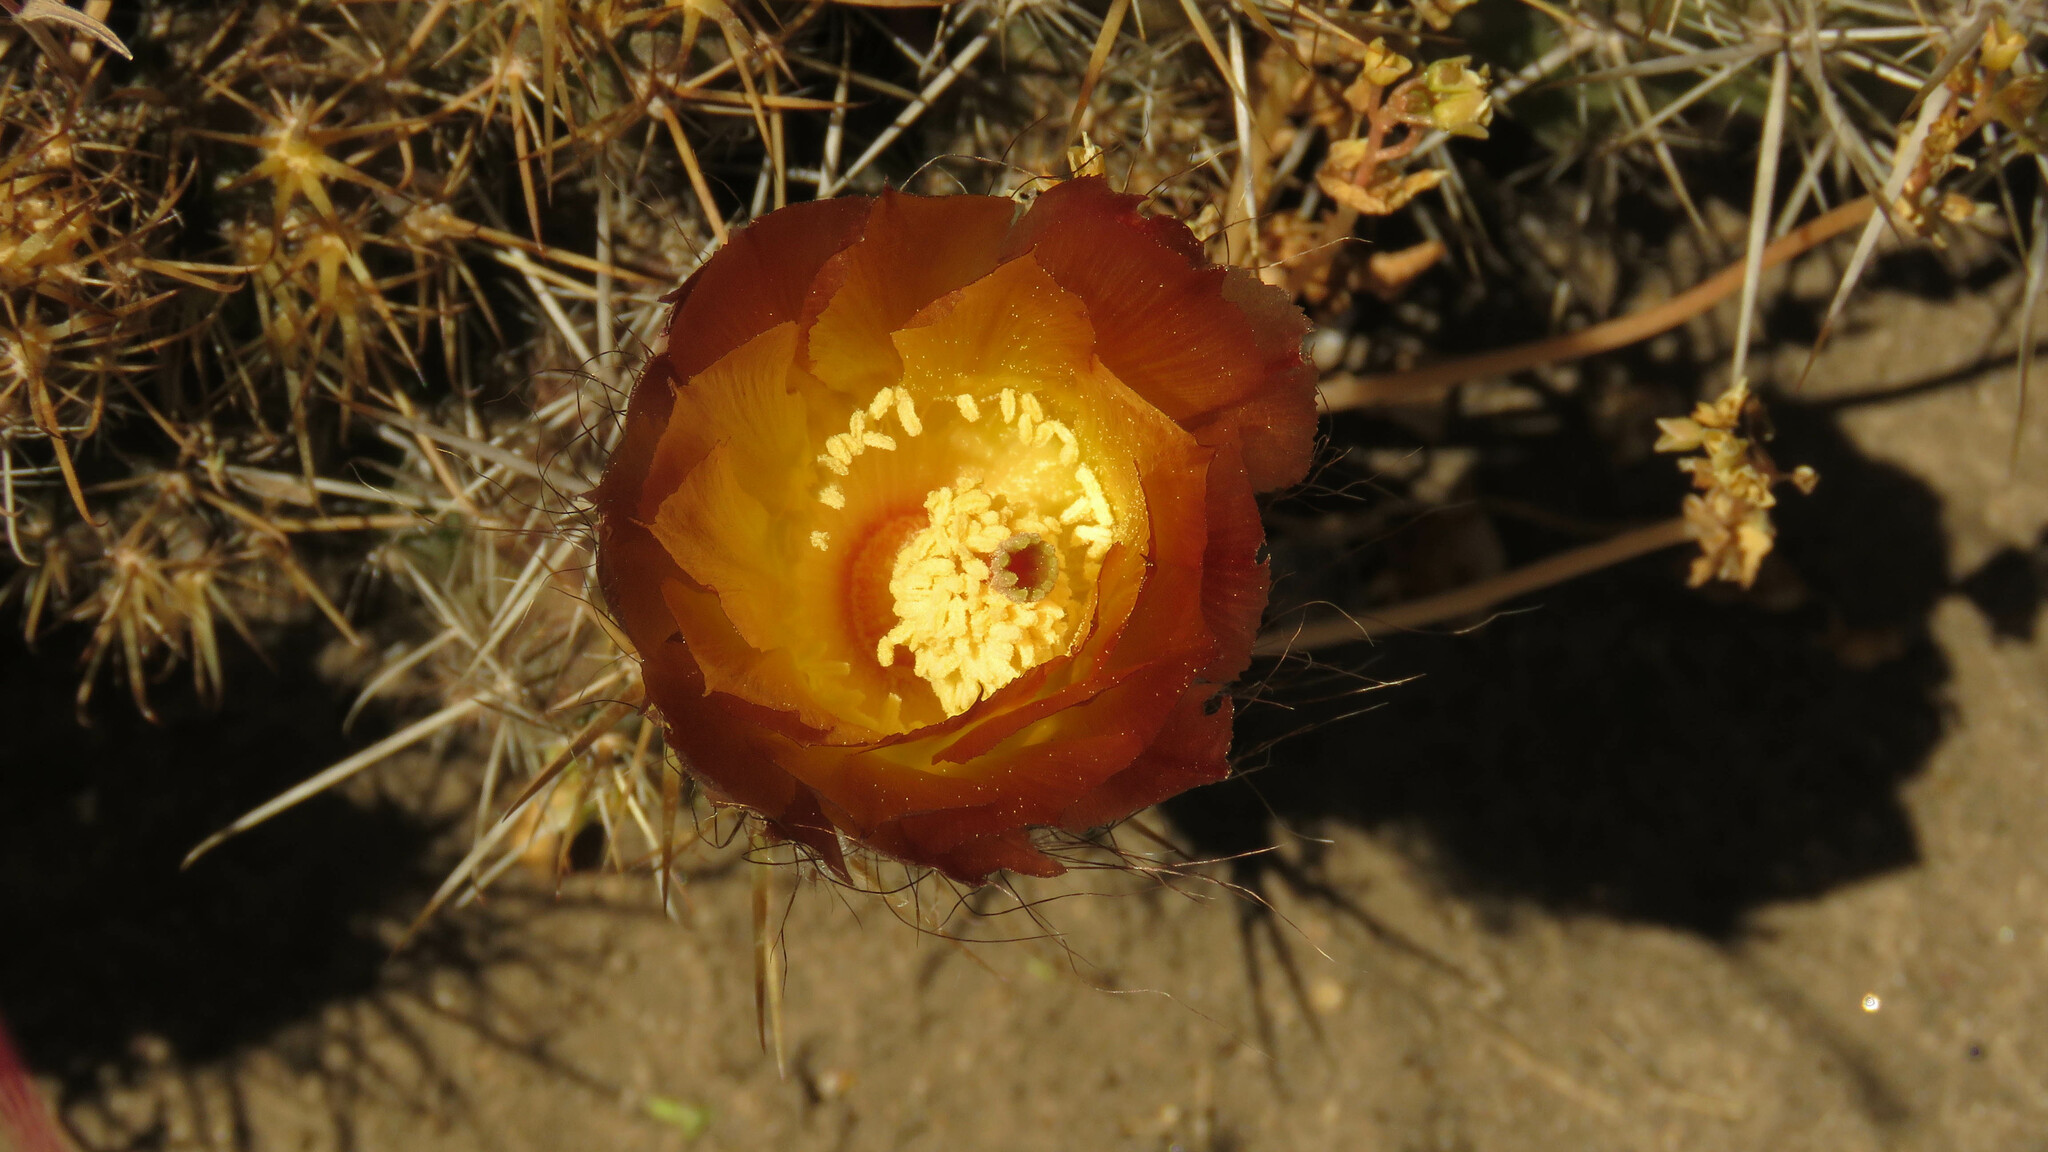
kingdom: Plantae
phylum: Tracheophyta
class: Magnoliopsida
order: Caryophyllales
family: Cactaceae
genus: Austrocactus
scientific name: Austrocactus coxii
